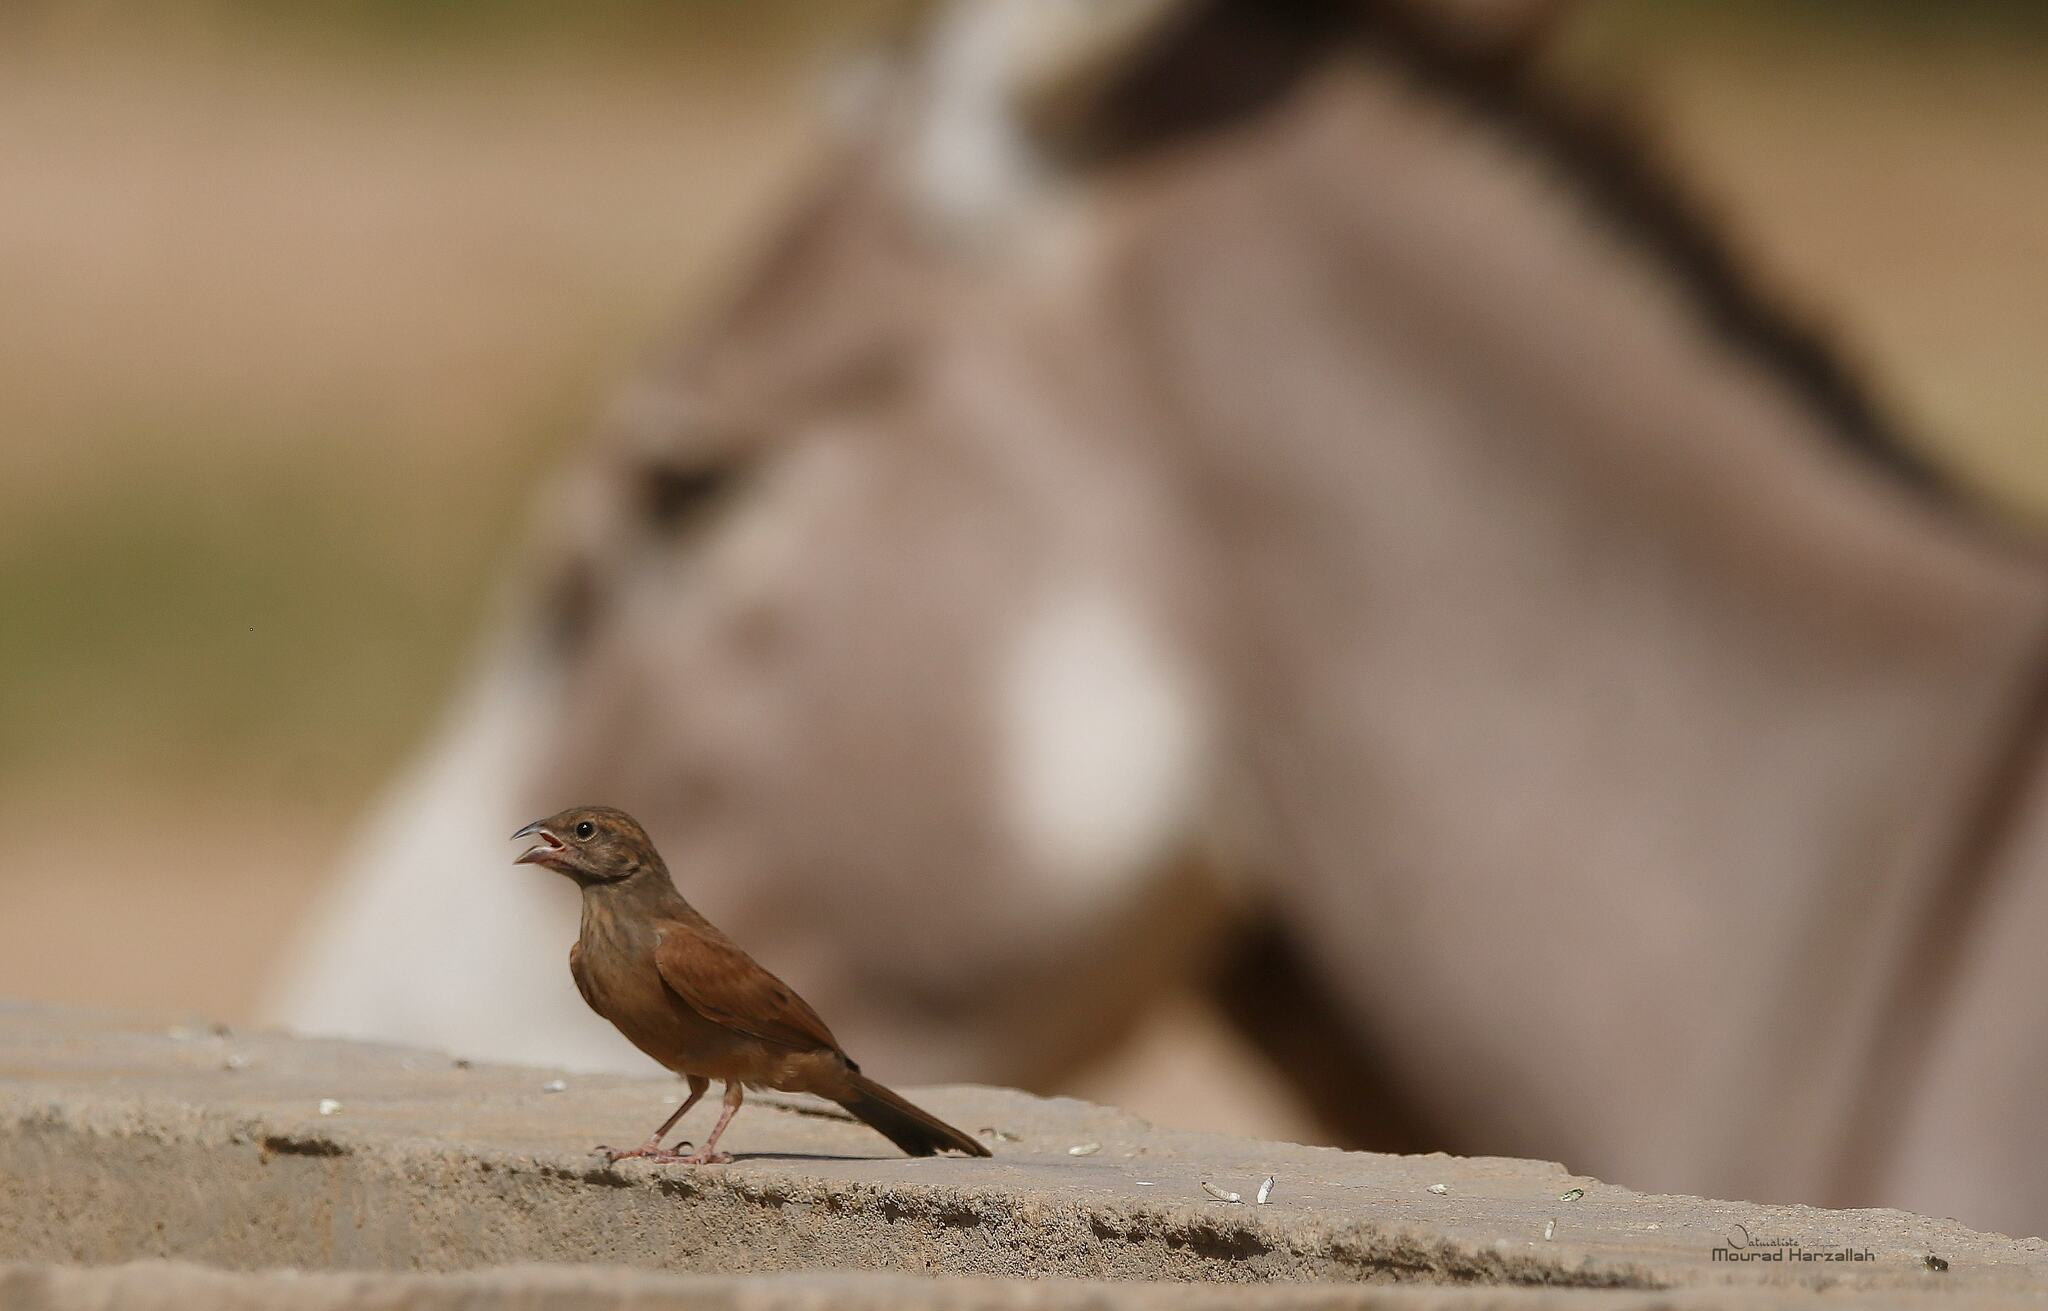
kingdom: Animalia
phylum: Chordata
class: Aves
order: Passeriformes
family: Emberizidae
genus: Emberiza
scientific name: Emberiza sahari
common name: House bunting
